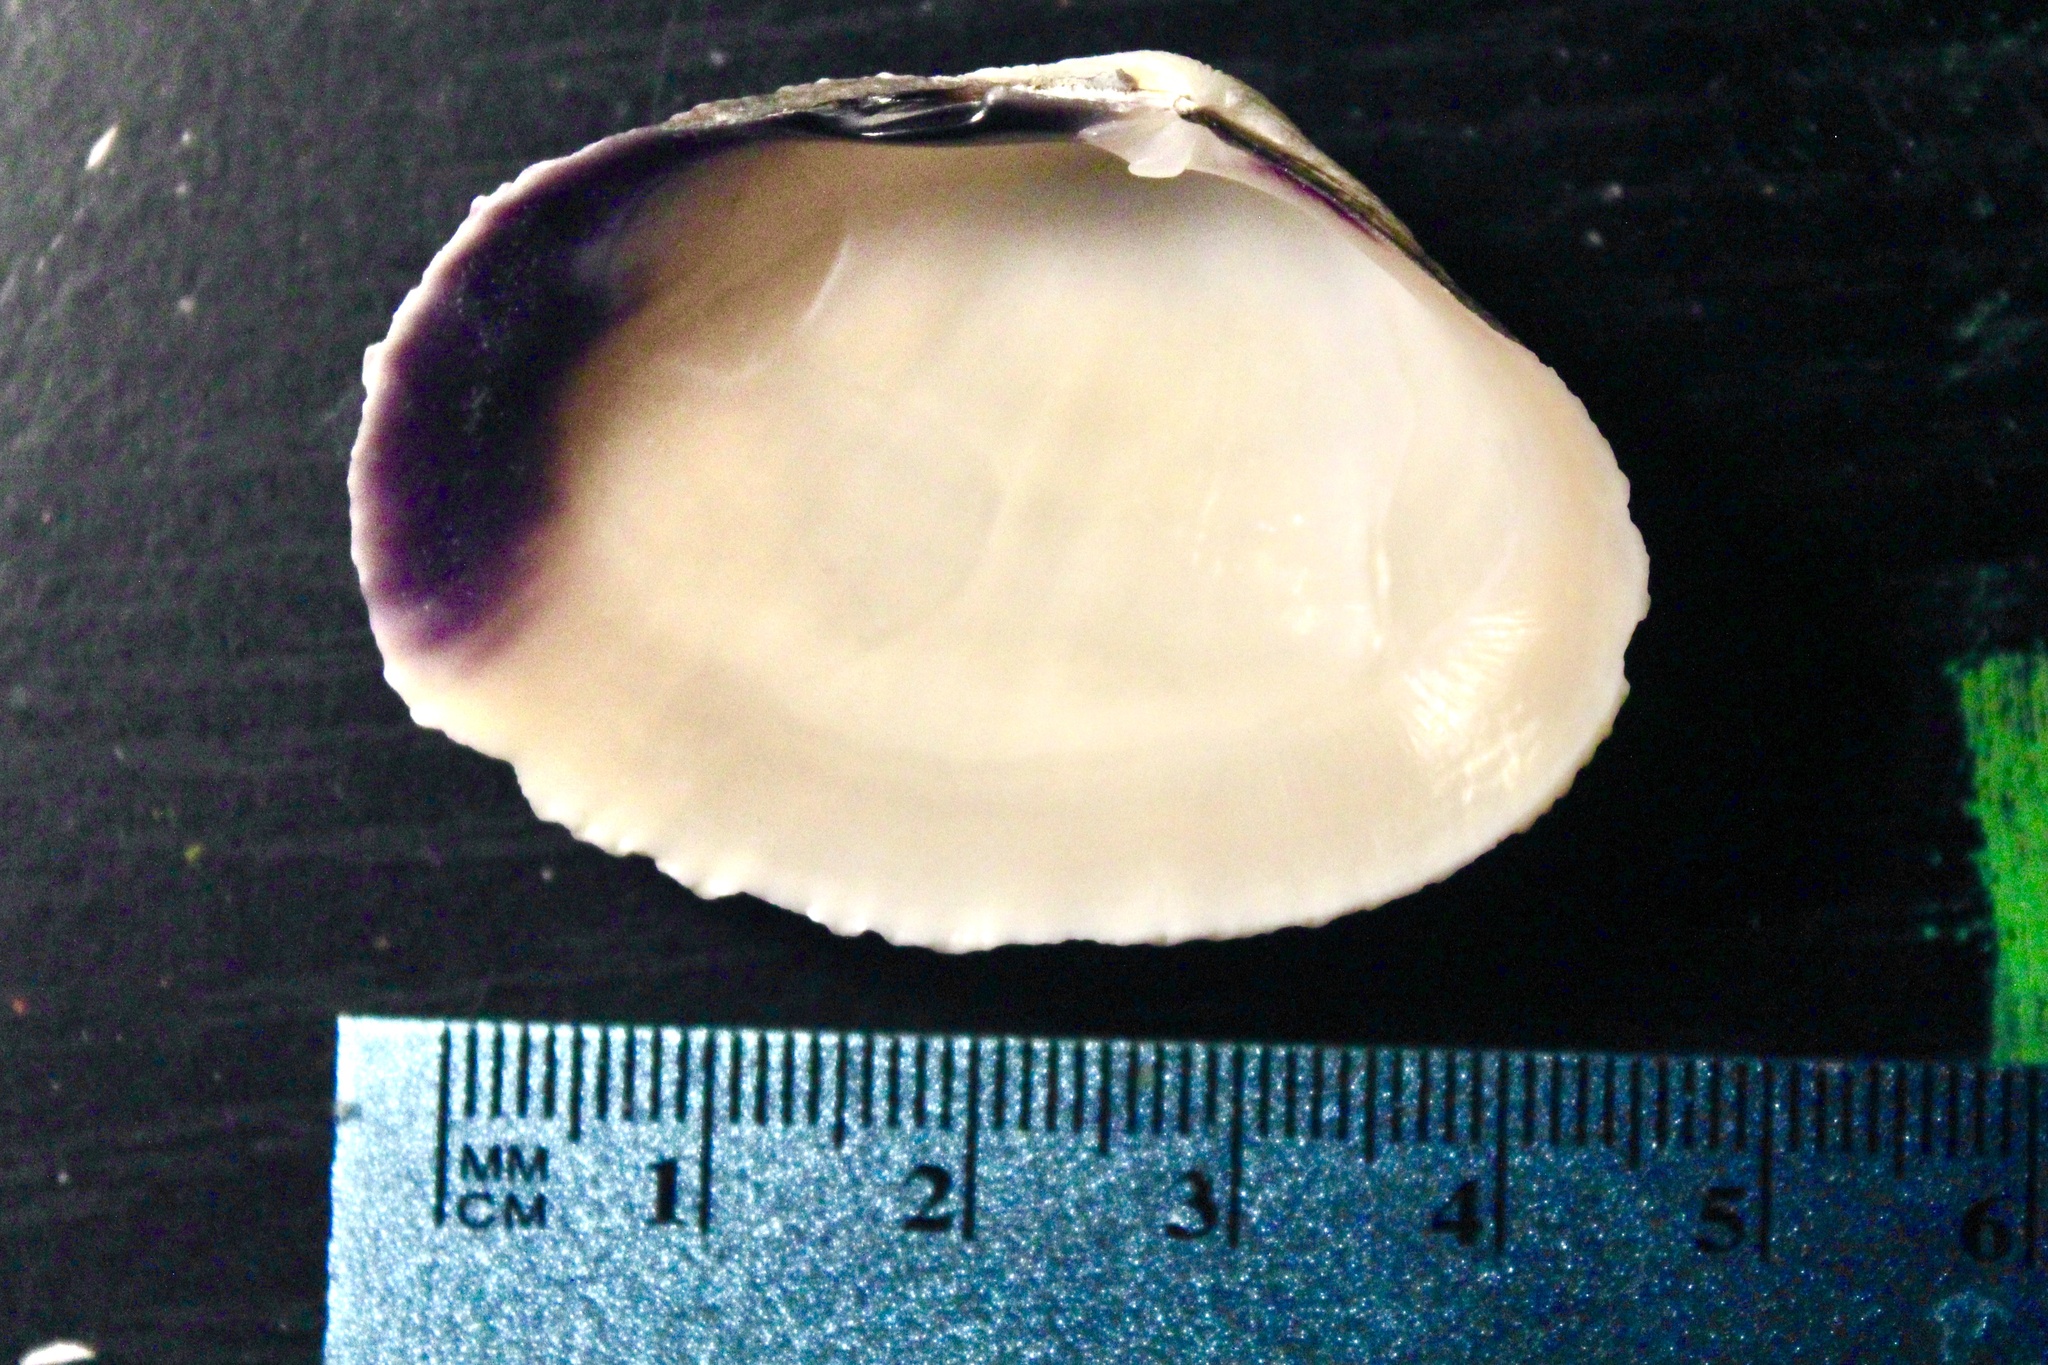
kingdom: Animalia
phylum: Mollusca
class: Bivalvia
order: Cardiida
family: Psammobiidae
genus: Asaphis
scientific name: Asaphis violascens
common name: Pacific asaphis
